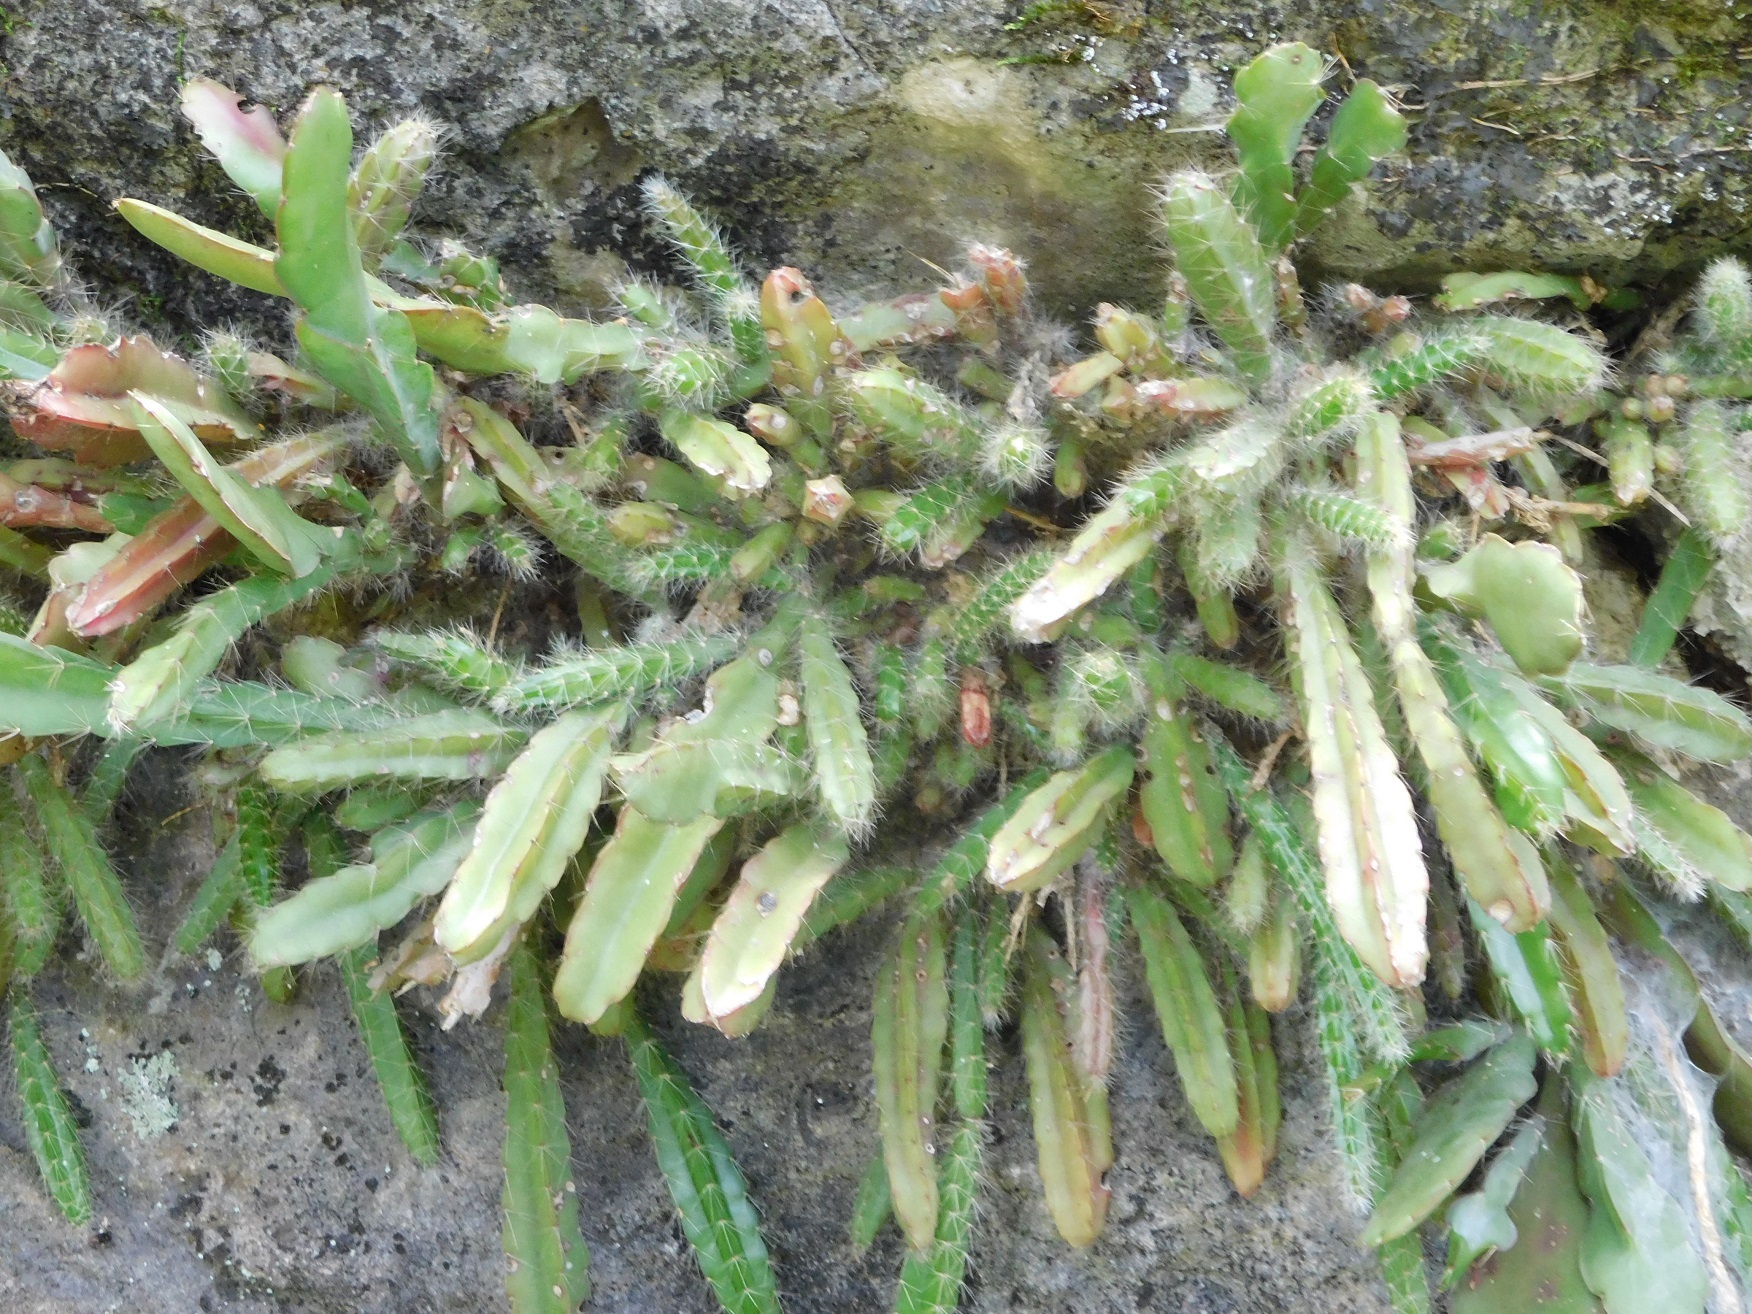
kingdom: Plantae
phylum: Tracheophyta
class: Magnoliopsida
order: Caryophyllales
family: Cactaceae
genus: Disocactus
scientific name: Disocactus crenatus
